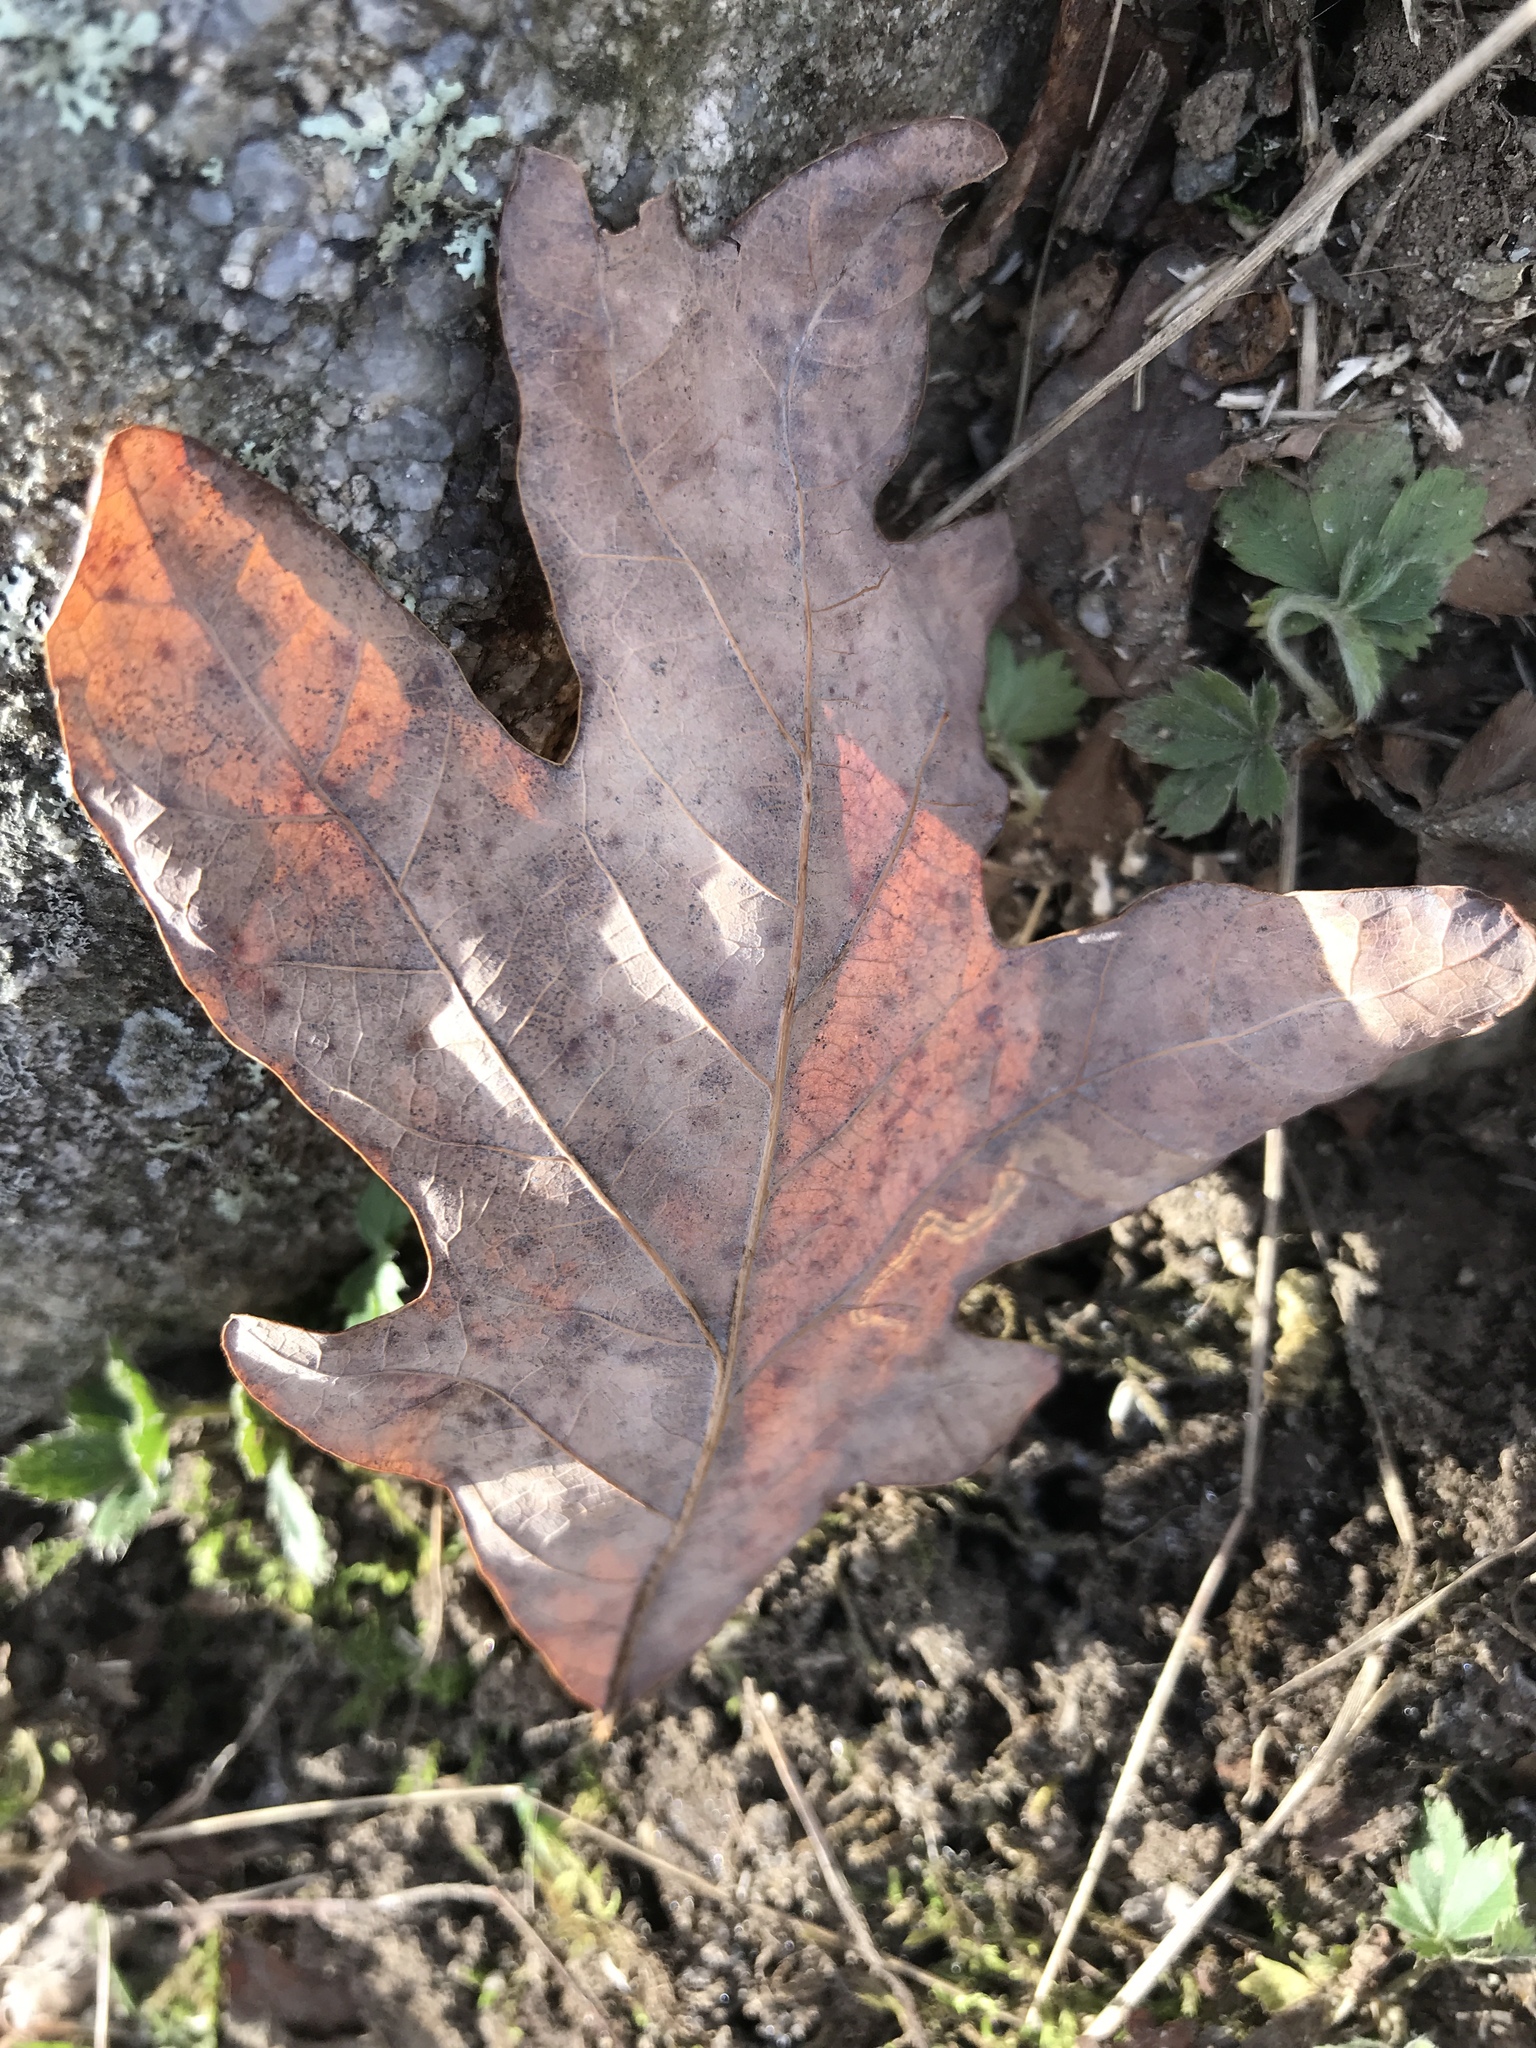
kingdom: Plantae
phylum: Tracheophyta
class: Magnoliopsida
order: Fagales
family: Fagaceae
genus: Quercus
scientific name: Quercus alba
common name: White oak
